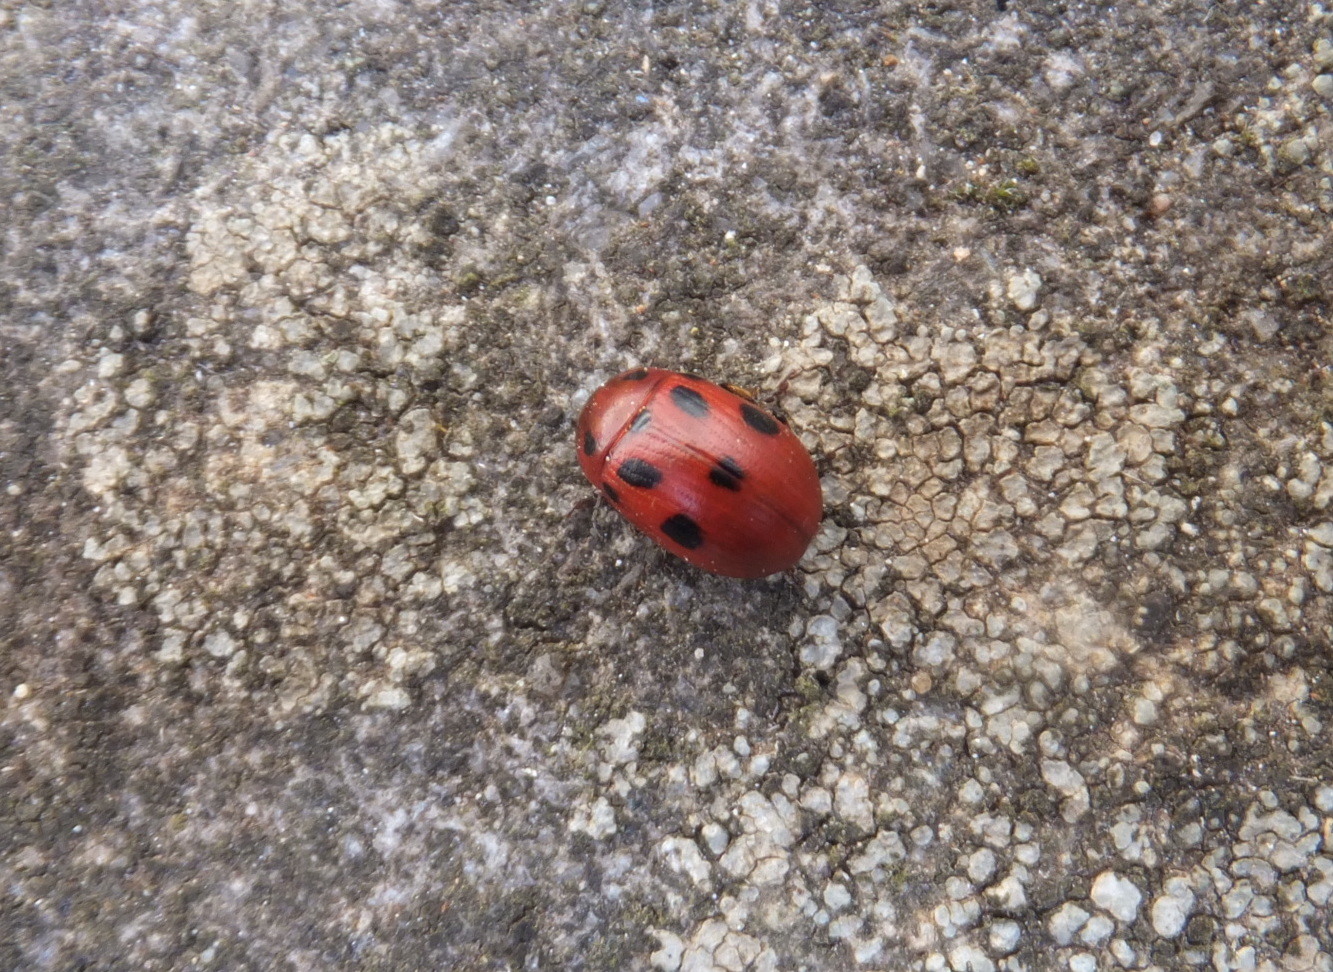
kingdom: Animalia
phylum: Arthropoda
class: Insecta
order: Coleoptera
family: Chrysomelidae
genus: Gonioctena
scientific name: Gonioctena fornicata
